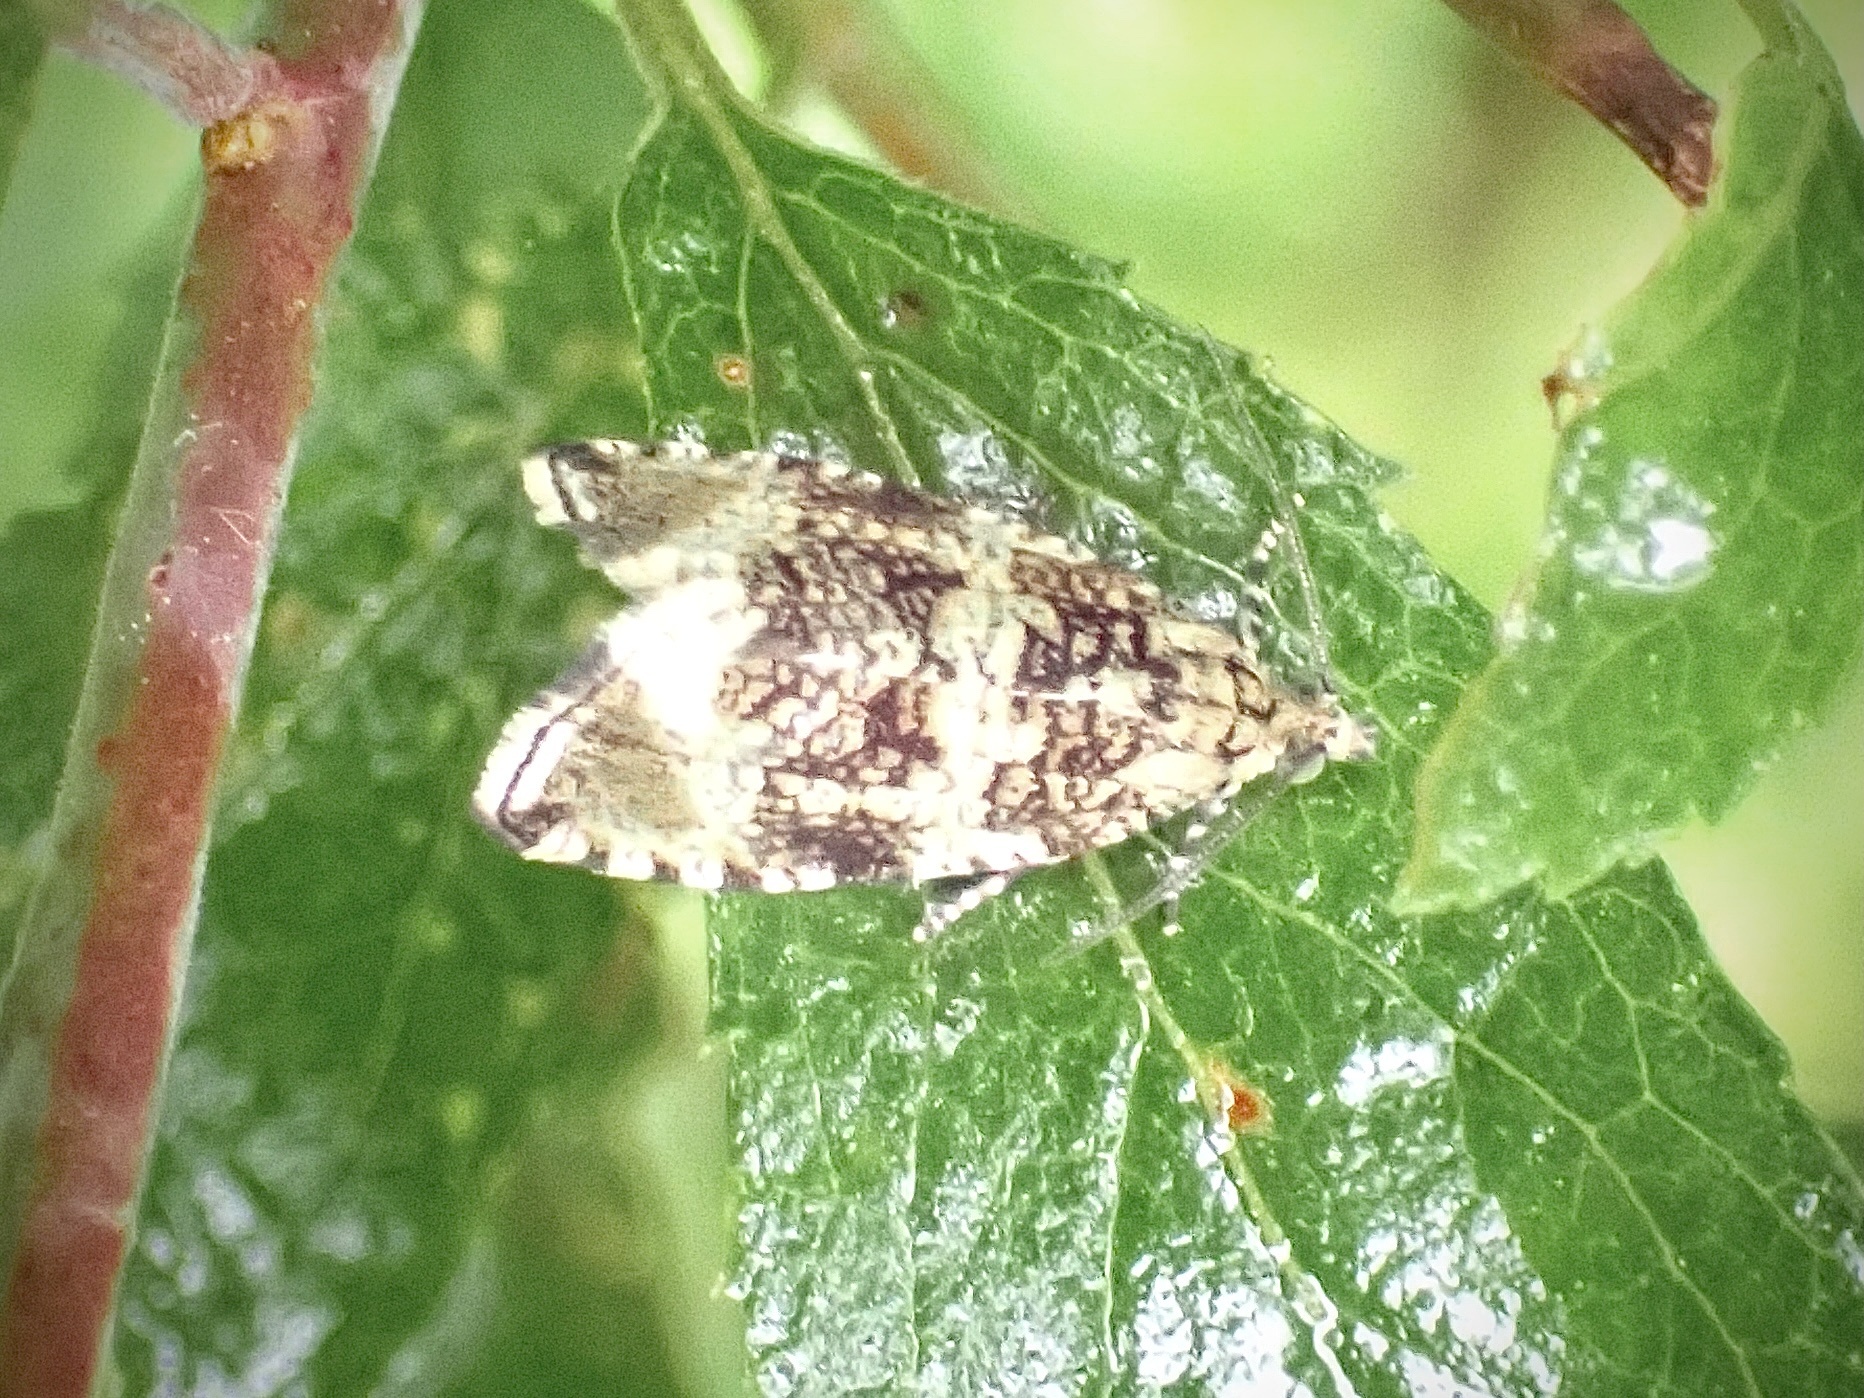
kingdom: Animalia
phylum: Arthropoda
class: Insecta
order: Lepidoptera
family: Tortricidae
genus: Syricoris
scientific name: Syricoris lacunana
